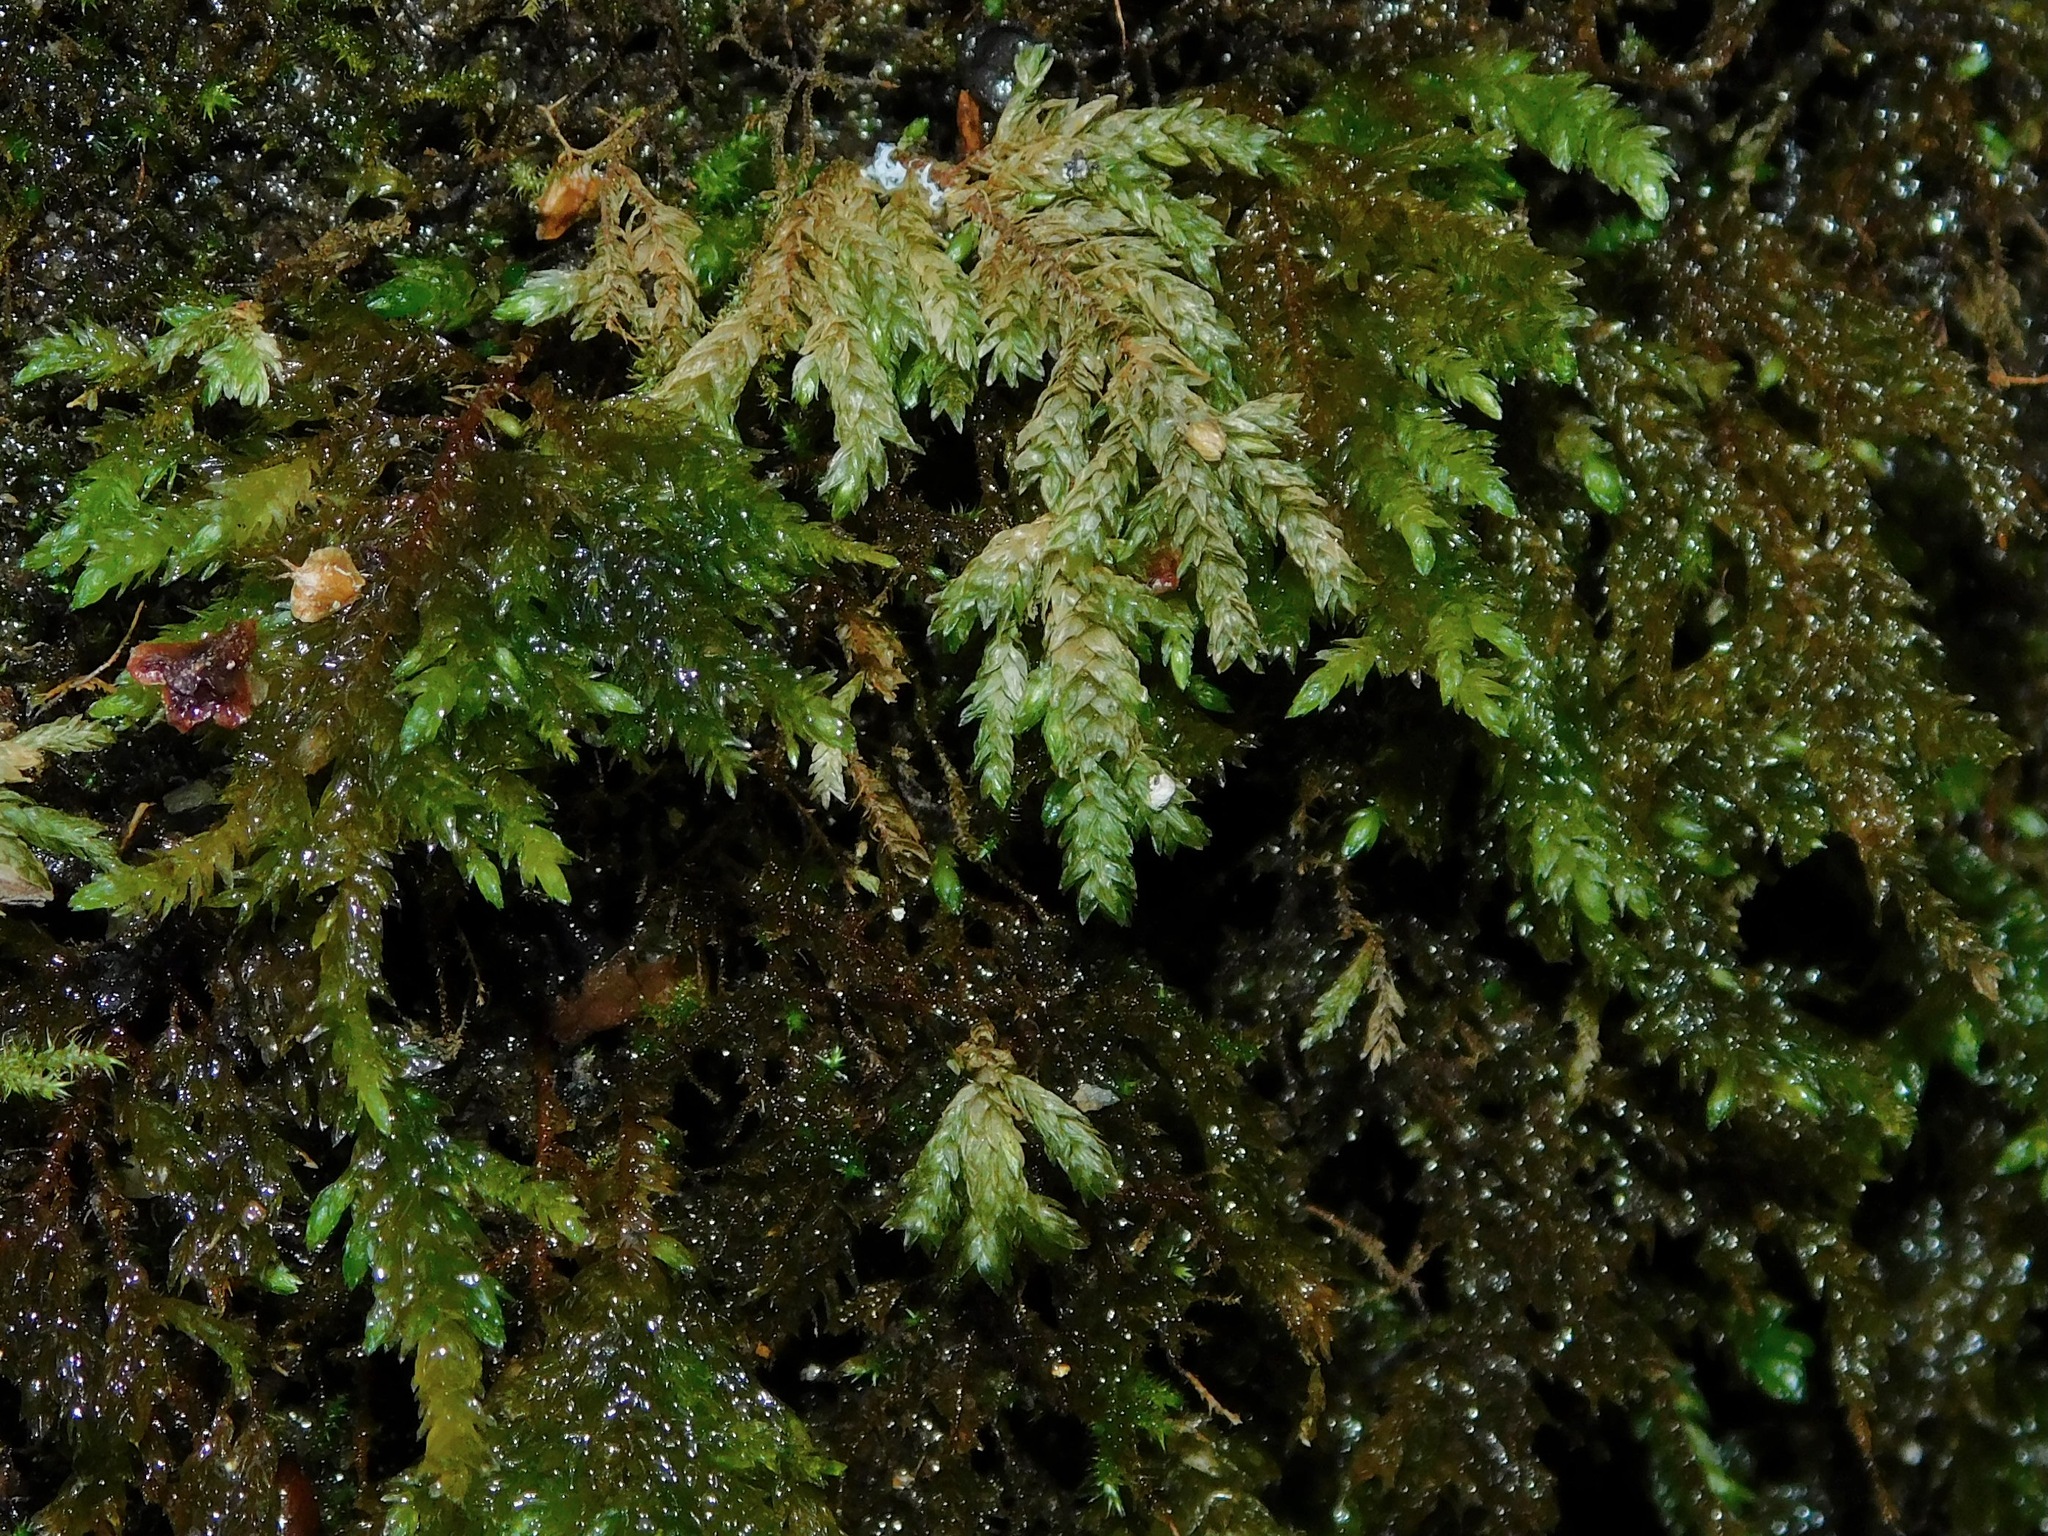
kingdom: Plantae
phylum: Bryophyta
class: Bryopsida
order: Hypnales
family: Neckeraceae
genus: Thamnobryum
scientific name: Thamnobryum subserratum
